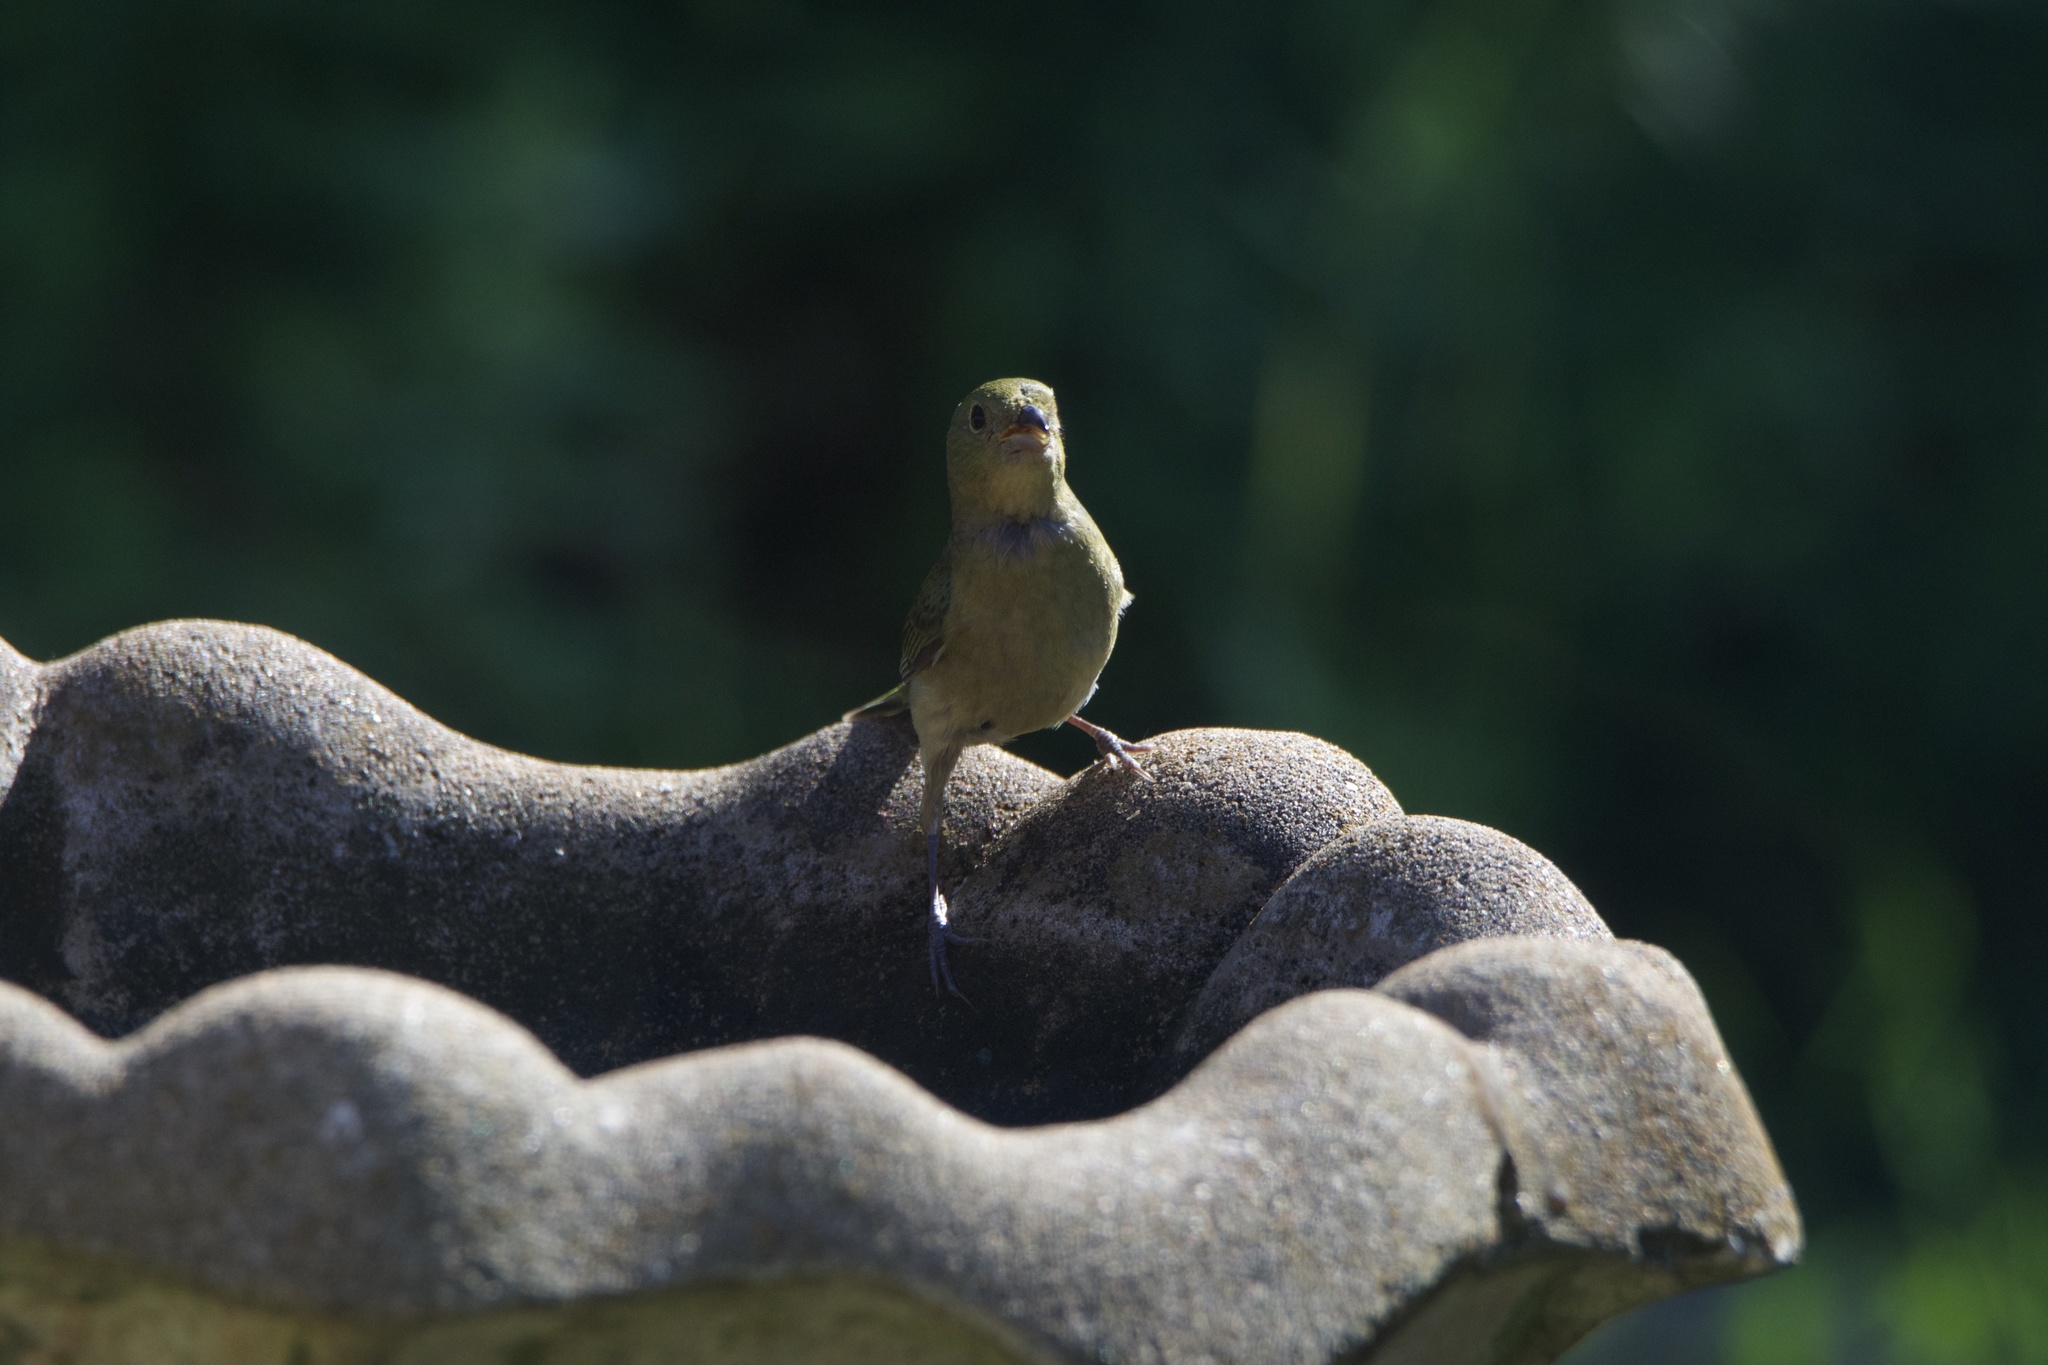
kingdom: Animalia
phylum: Chordata
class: Aves
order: Passeriformes
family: Cardinalidae
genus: Passerina
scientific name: Passerina ciris
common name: Painted bunting
